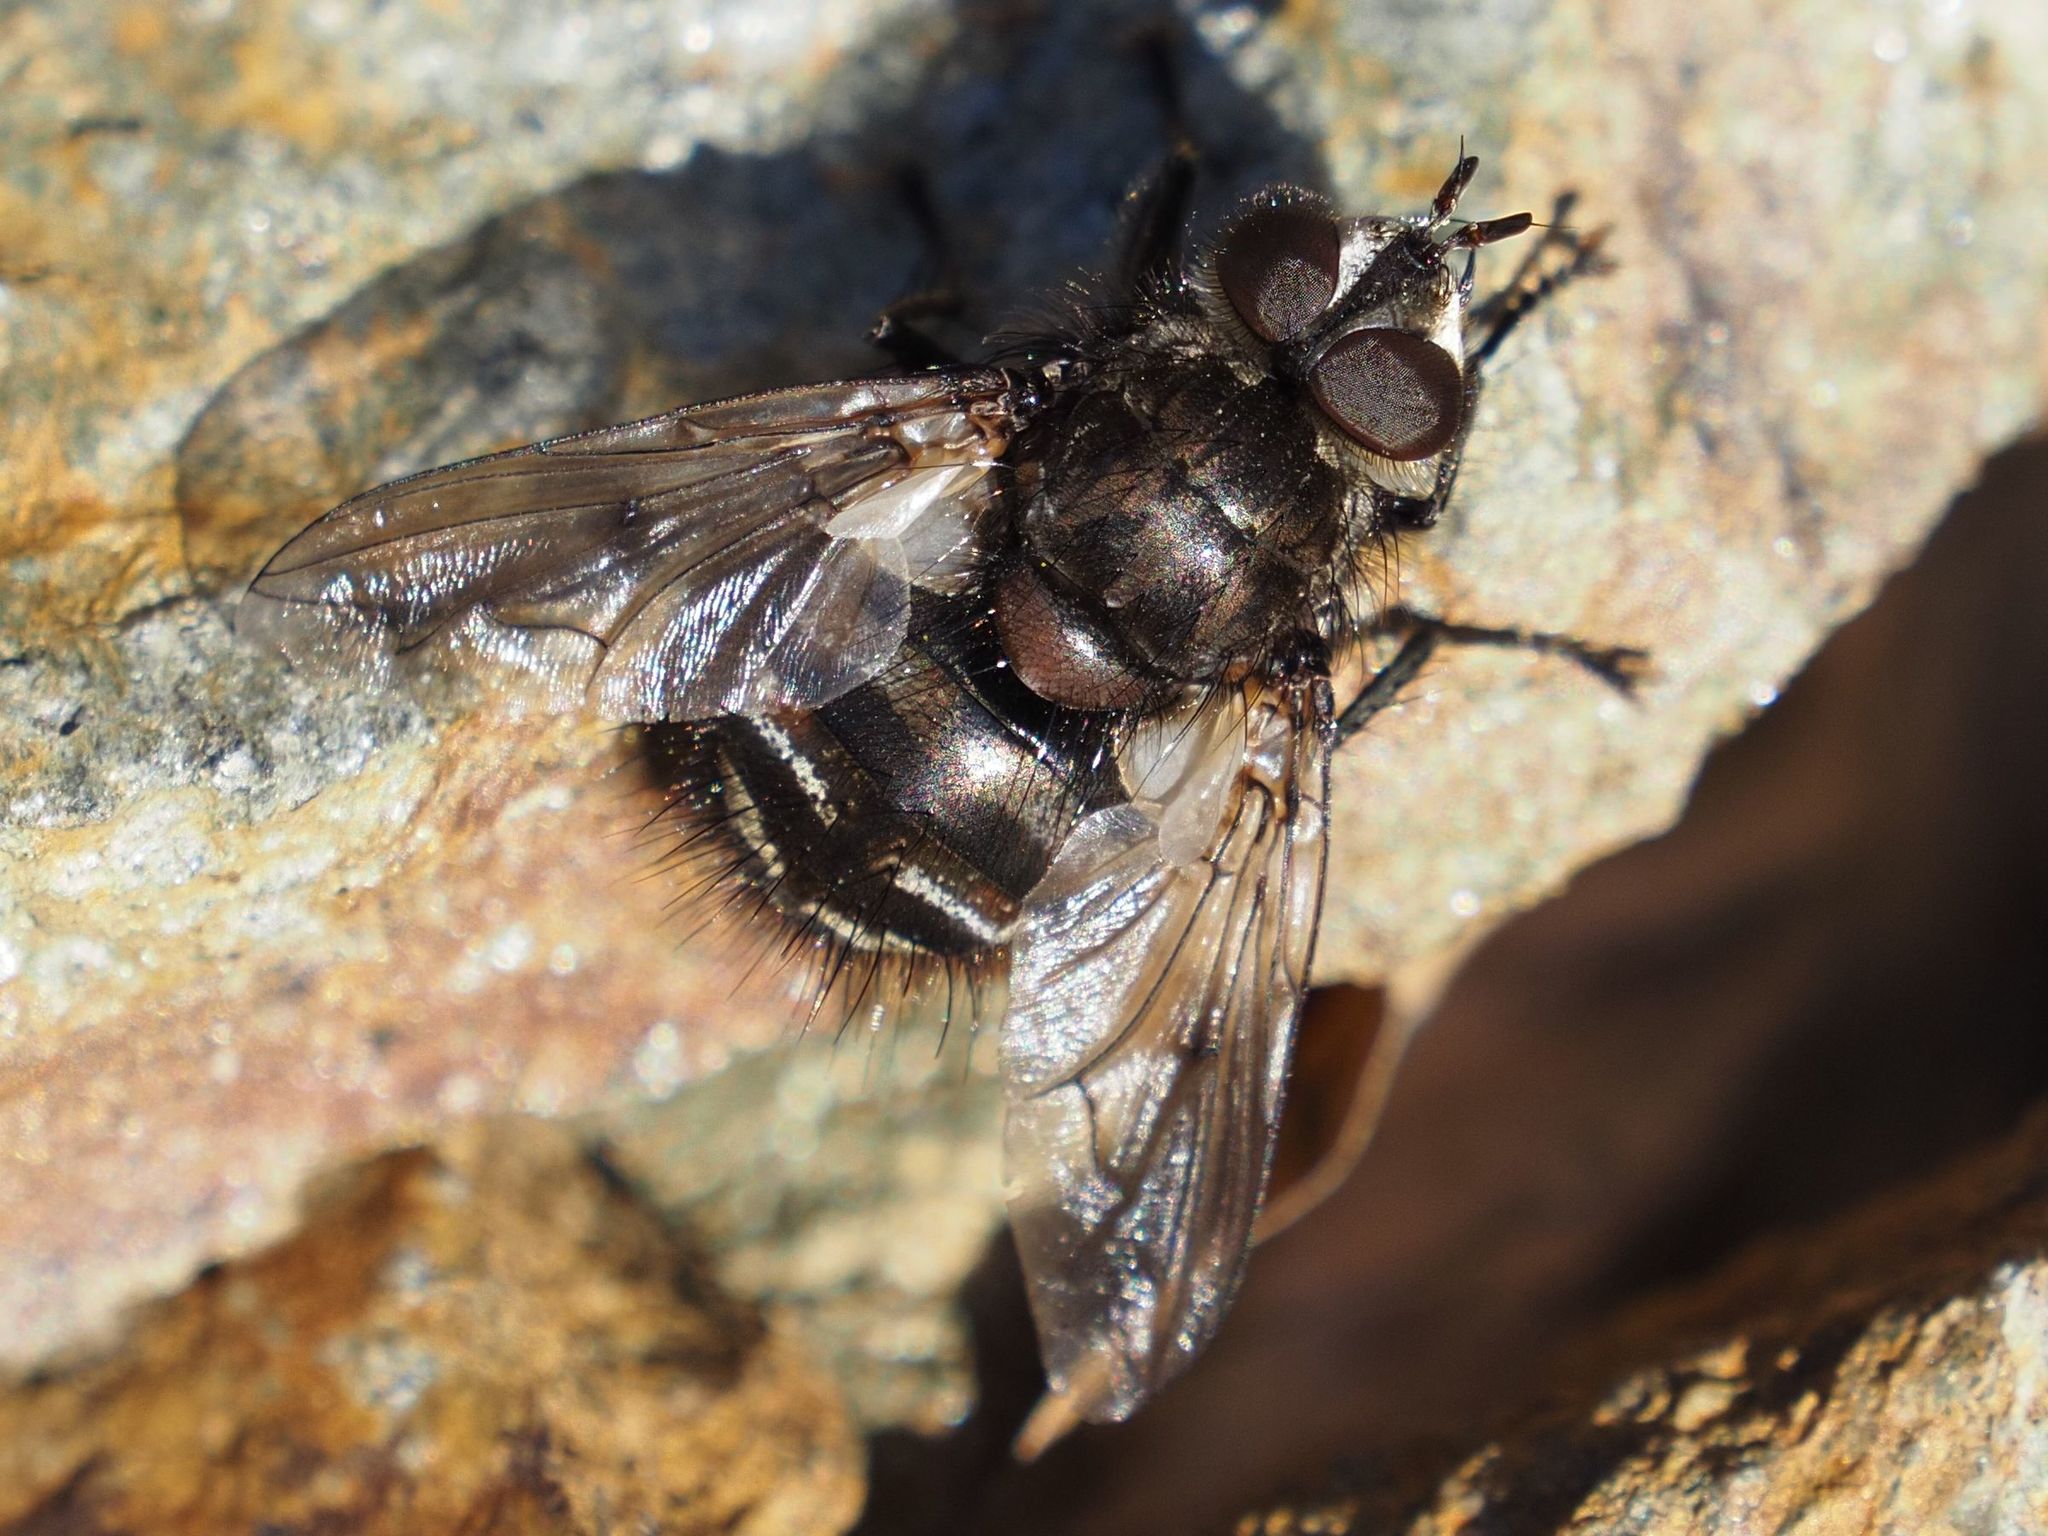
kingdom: Animalia
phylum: Arthropoda
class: Insecta
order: Diptera
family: Tachinidae
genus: Panzeria
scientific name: Panzeria puparum
